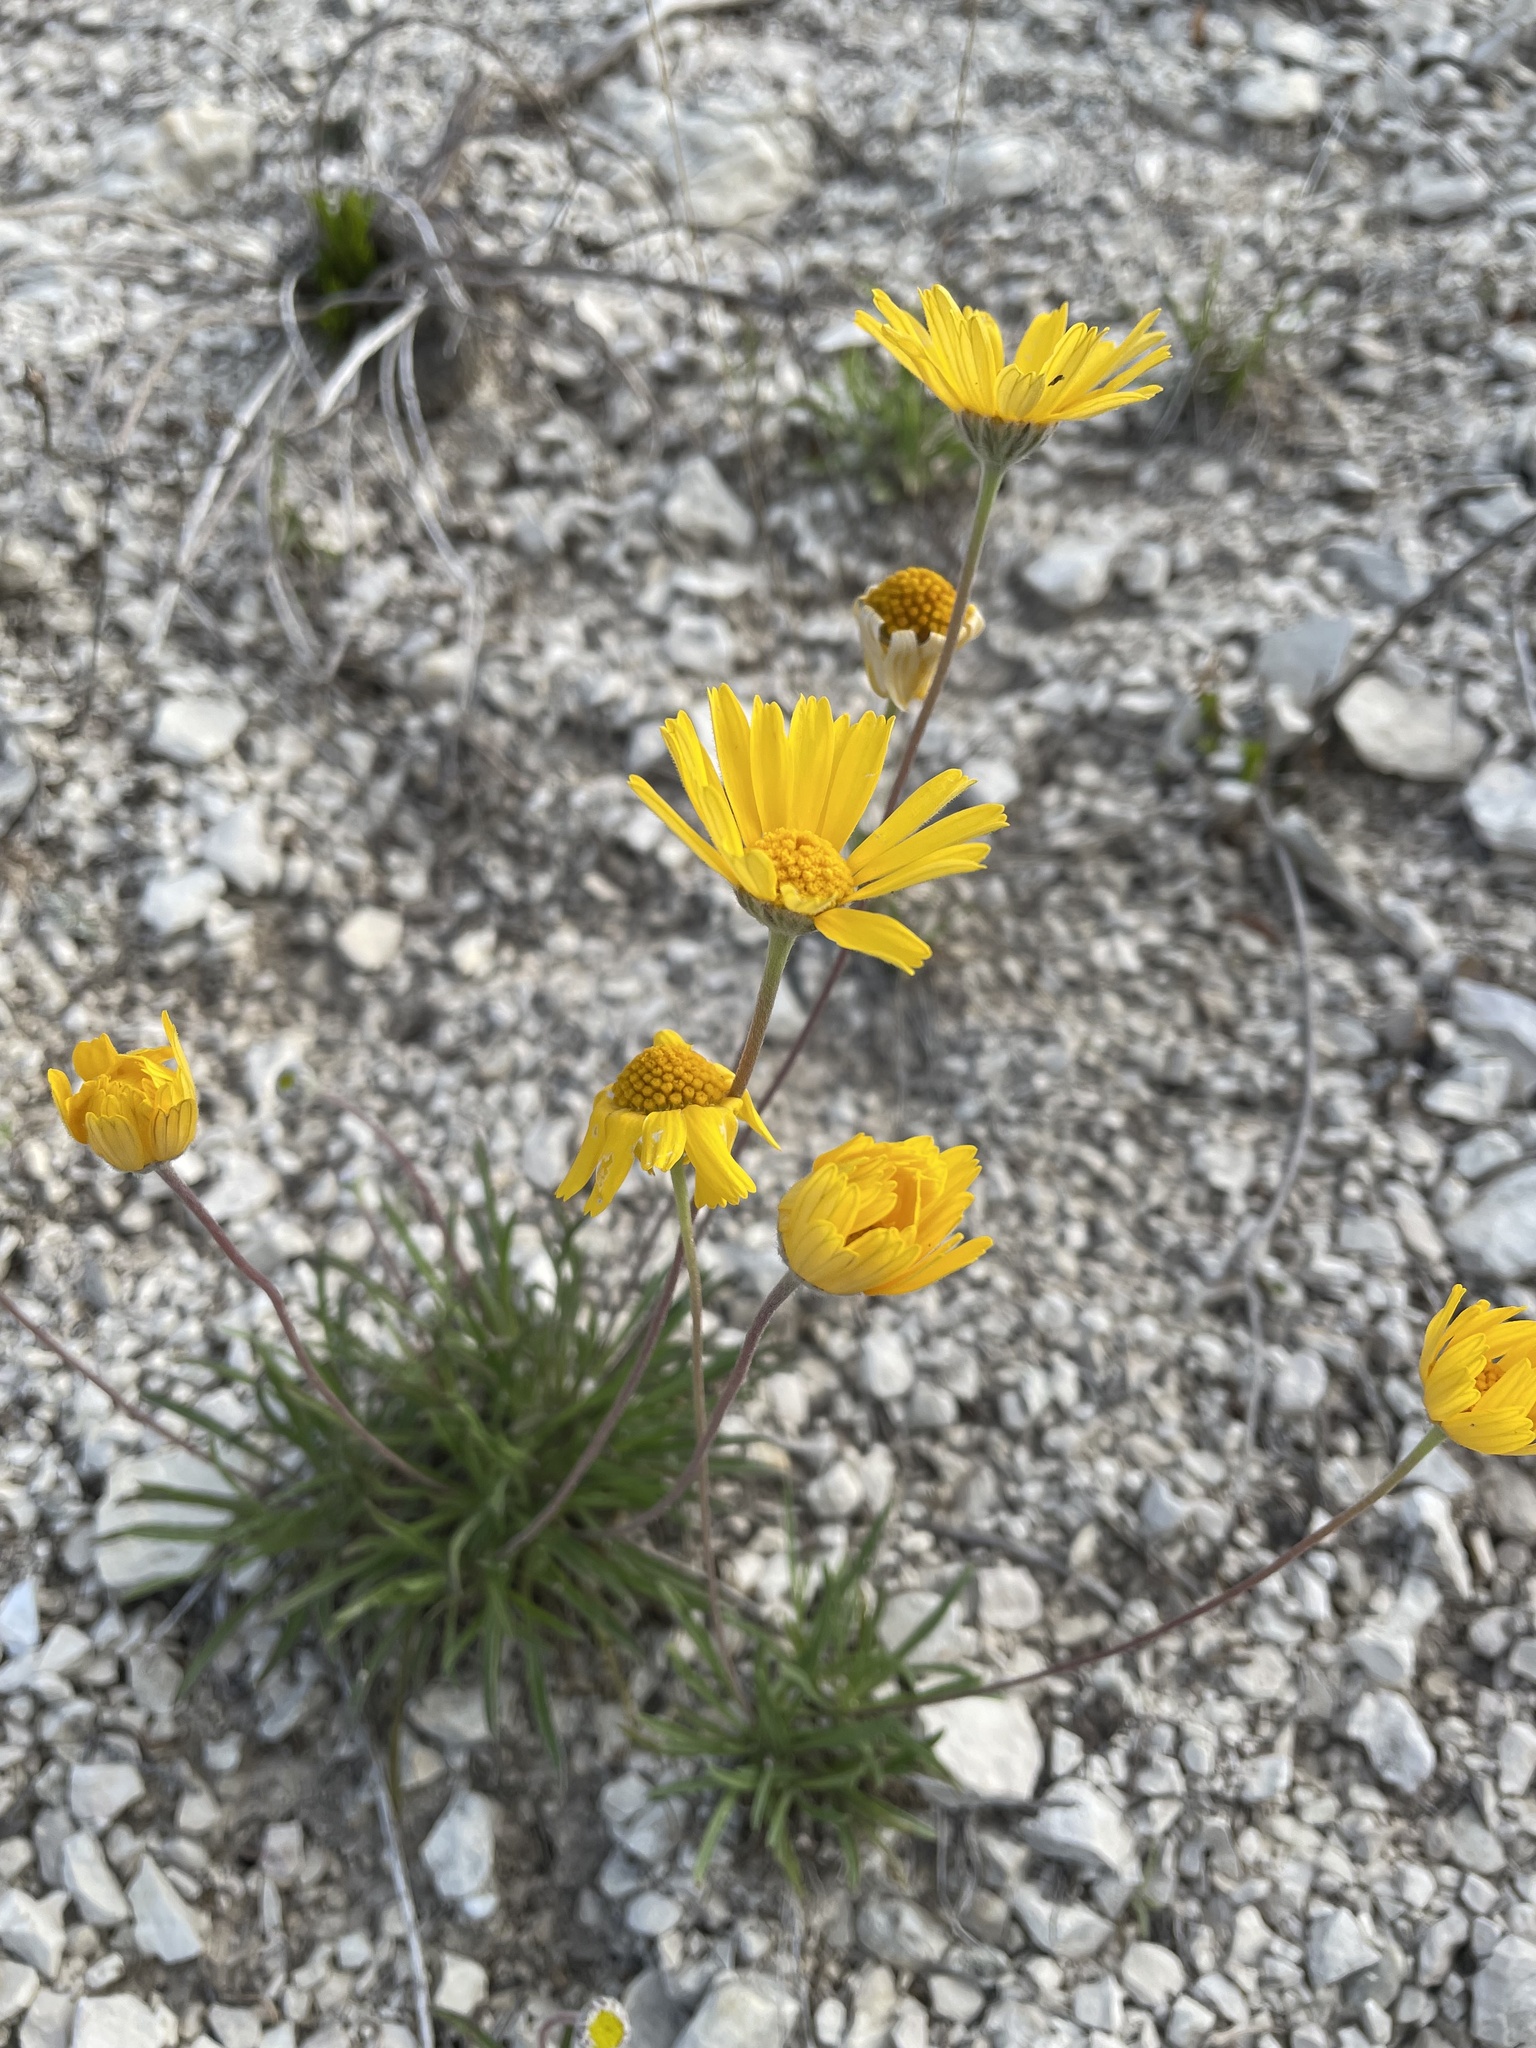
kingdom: Plantae
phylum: Tracheophyta
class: Magnoliopsida
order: Asterales
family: Asteraceae
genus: Tetraneuris
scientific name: Tetraneuris scaposa
